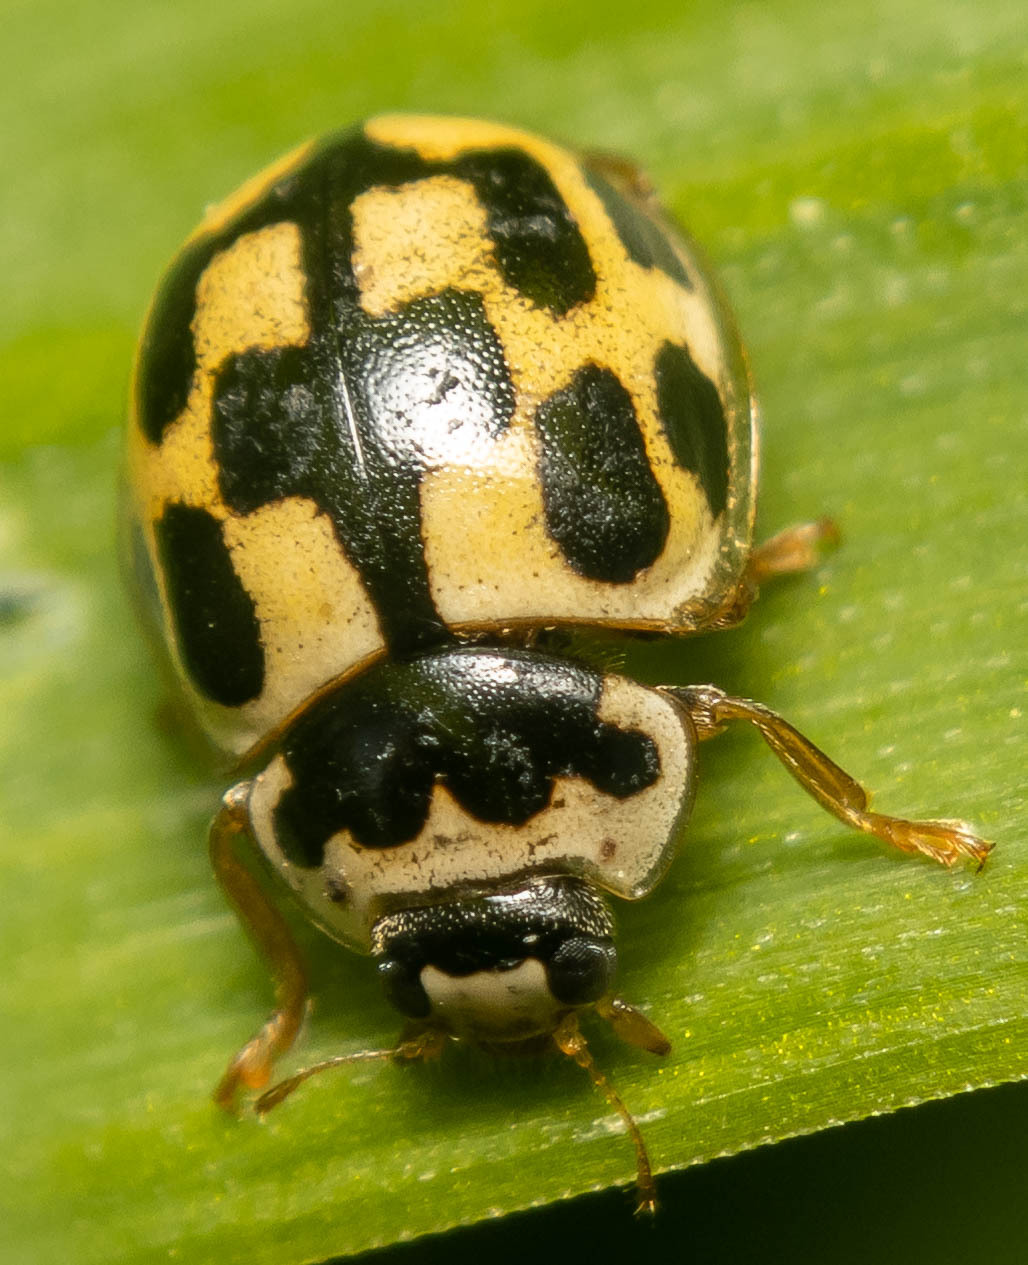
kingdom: Animalia
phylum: Arthropoda
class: Insecta
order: Coleoptera
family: Coccinellidae
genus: Propylaea
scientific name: Propylaea quatuordecimpunctata
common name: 14-spotted ladybird beetle
